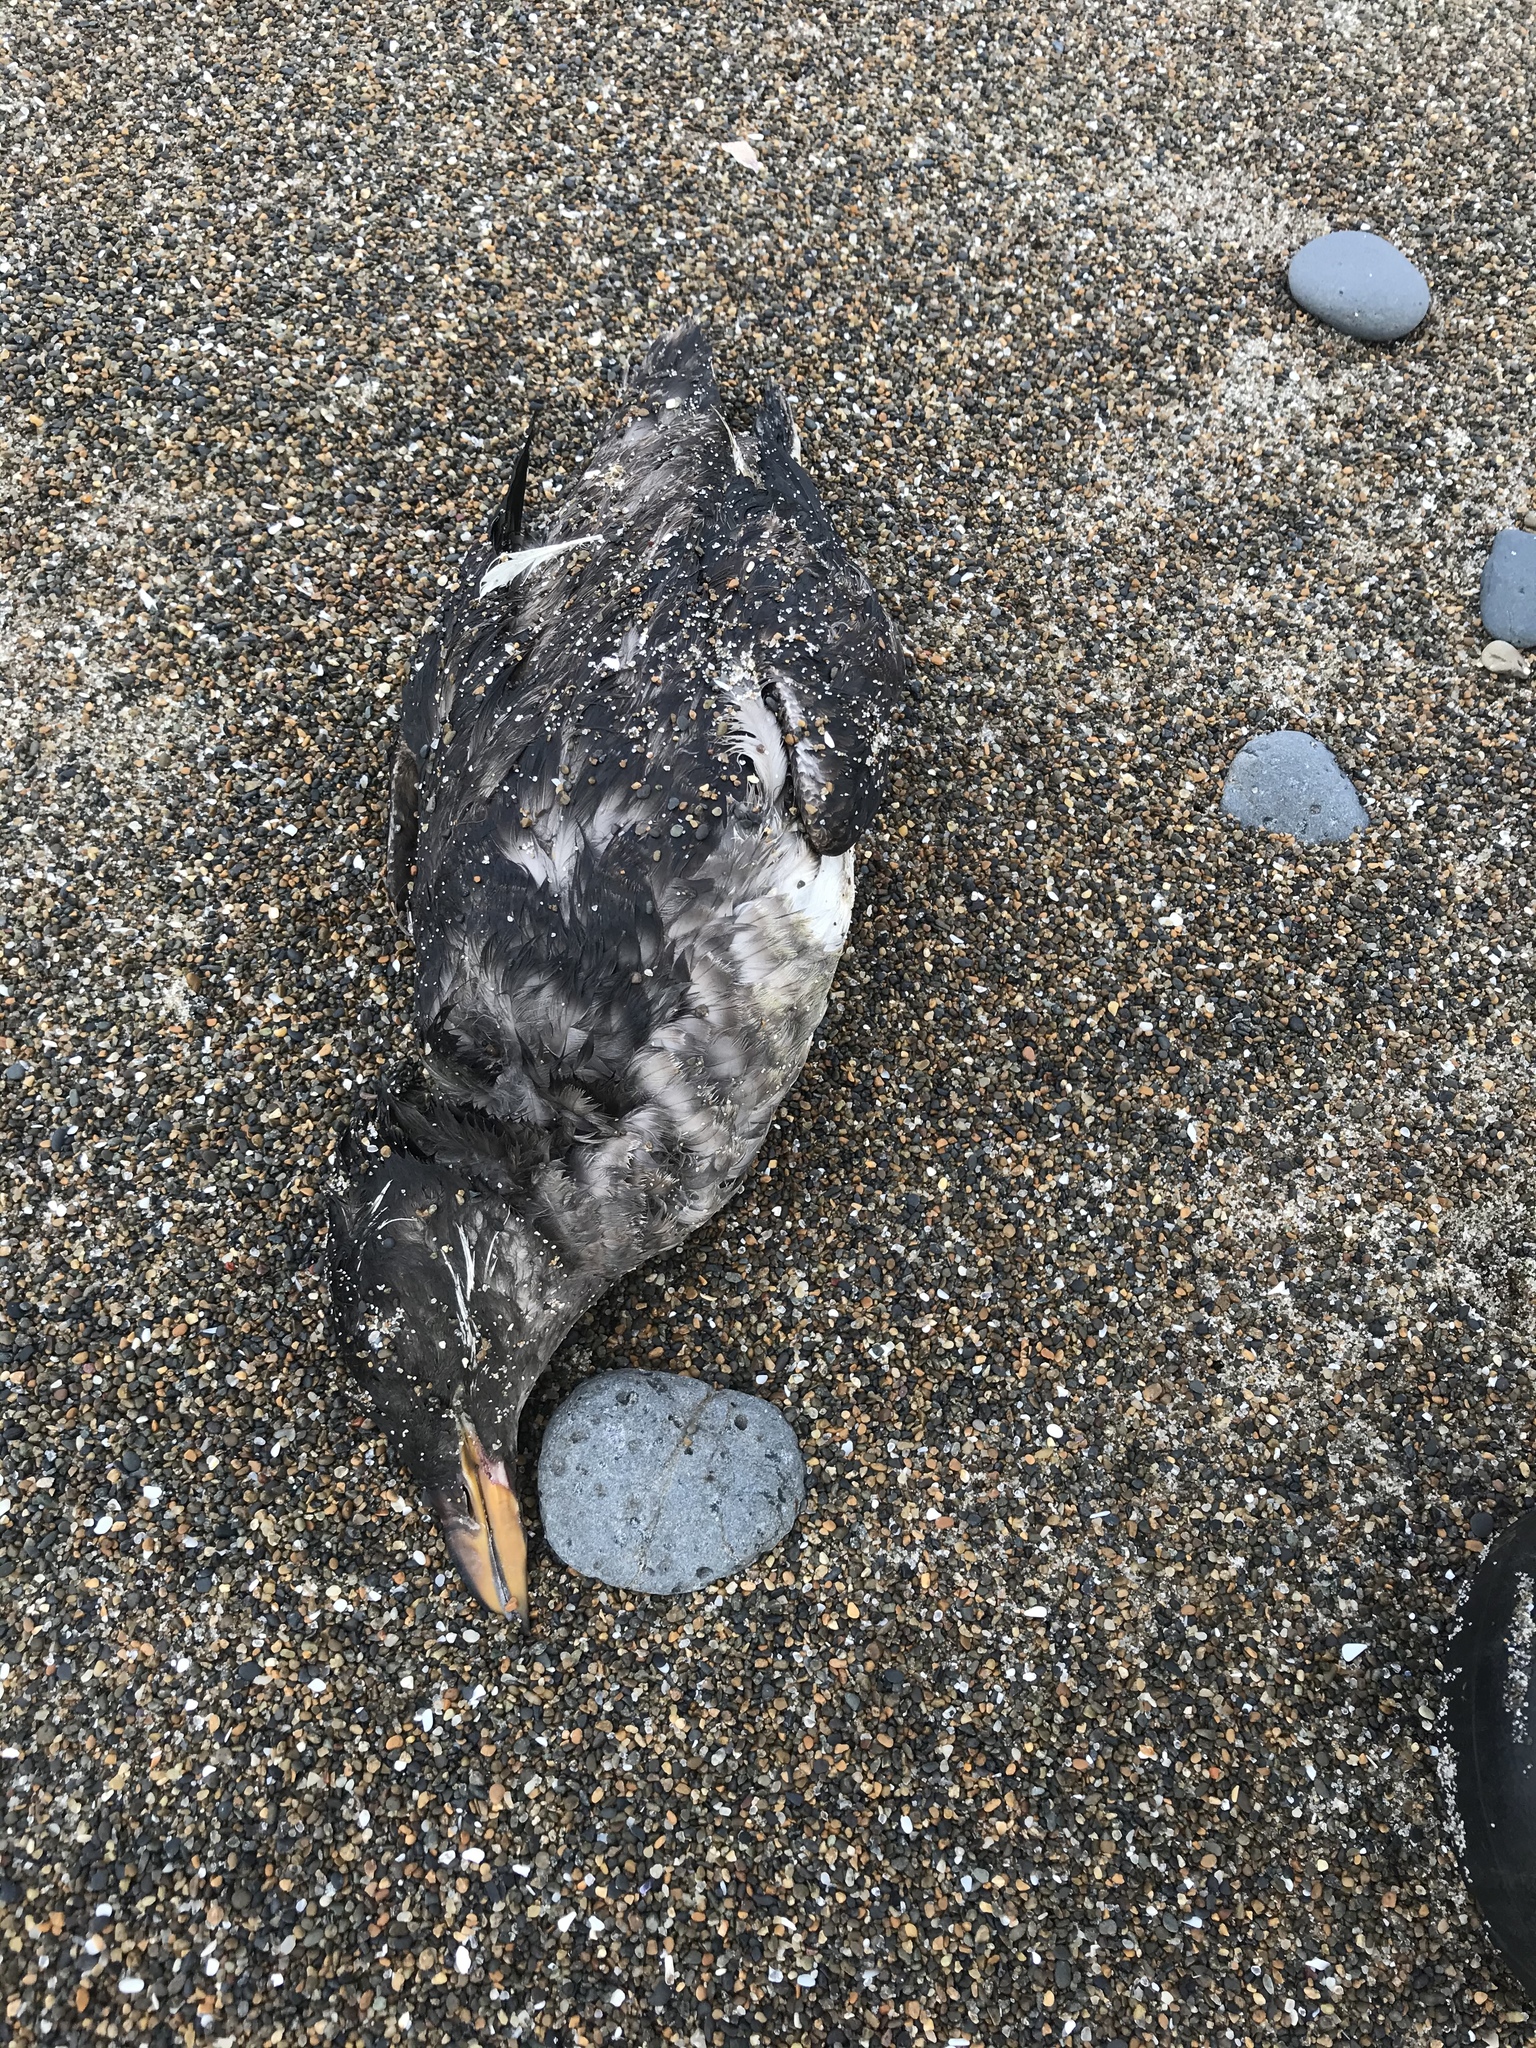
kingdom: Animalia
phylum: Chordata
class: Aves
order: Charadriiformes
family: Alcidae
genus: Cerorhinca
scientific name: Cerorhinca monocerata
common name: Rhinoceros auklet
